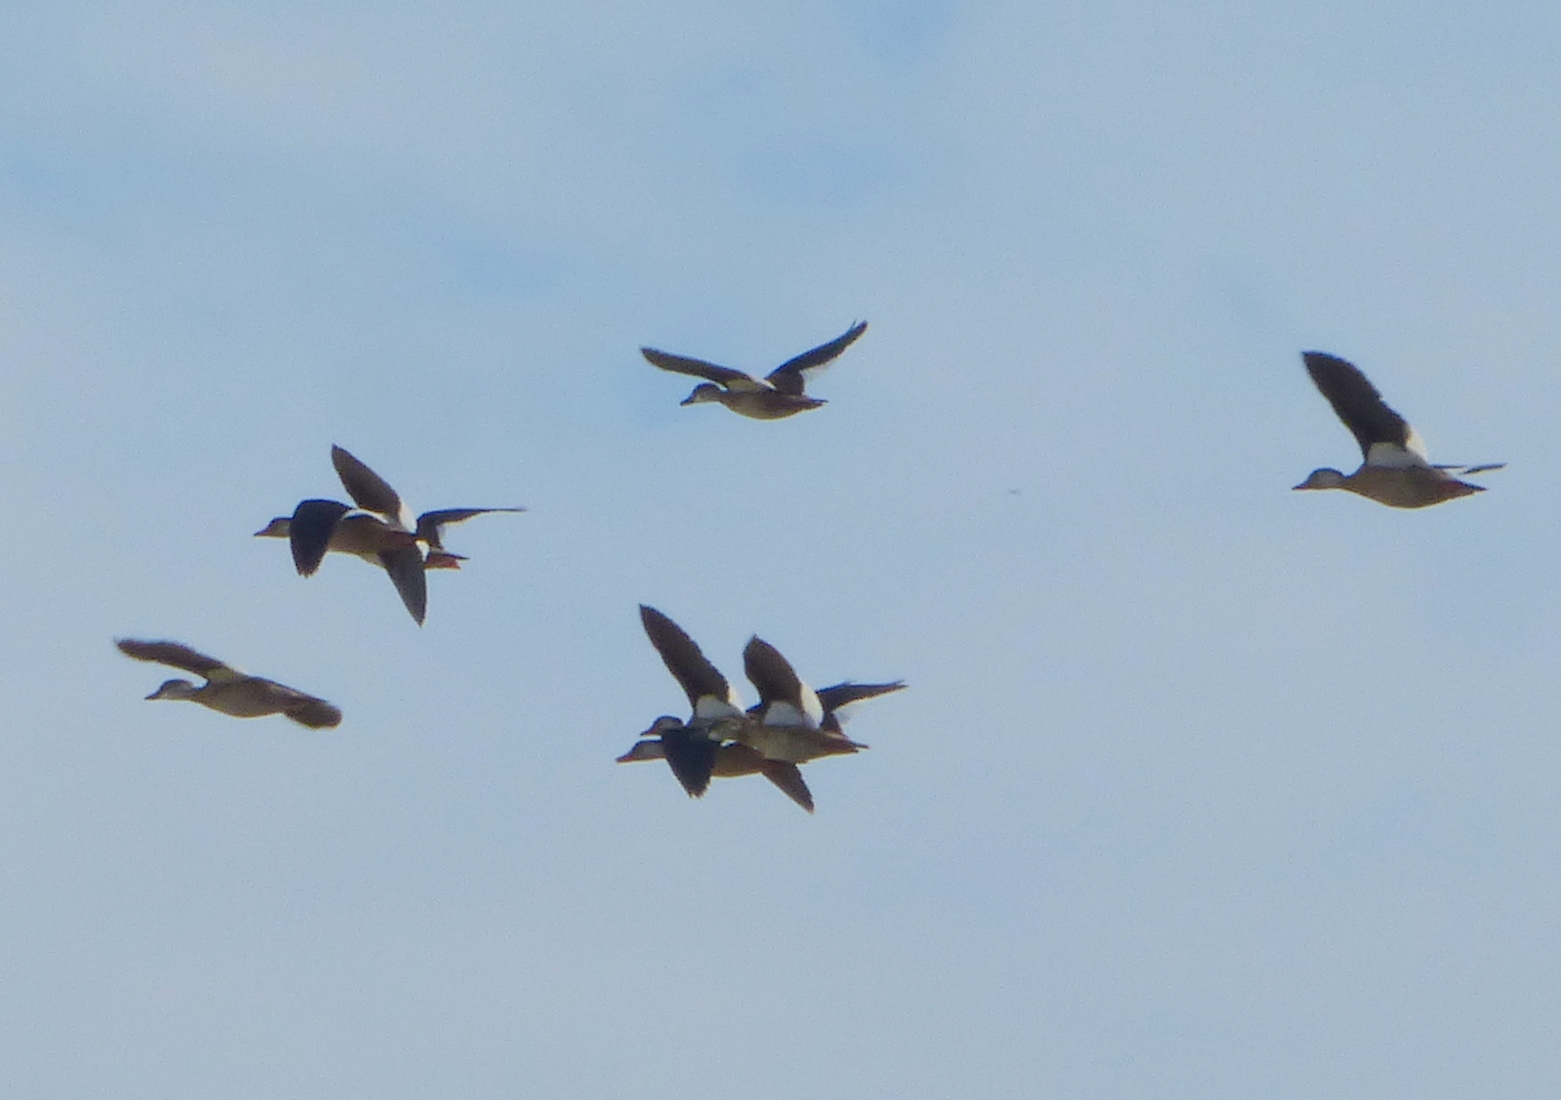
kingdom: Animalia
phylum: Chordata
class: Aves
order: Anseriformes
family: Anatidae
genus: Amazonetta
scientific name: Amazonetta brasiliensis
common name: Brazilian teal
